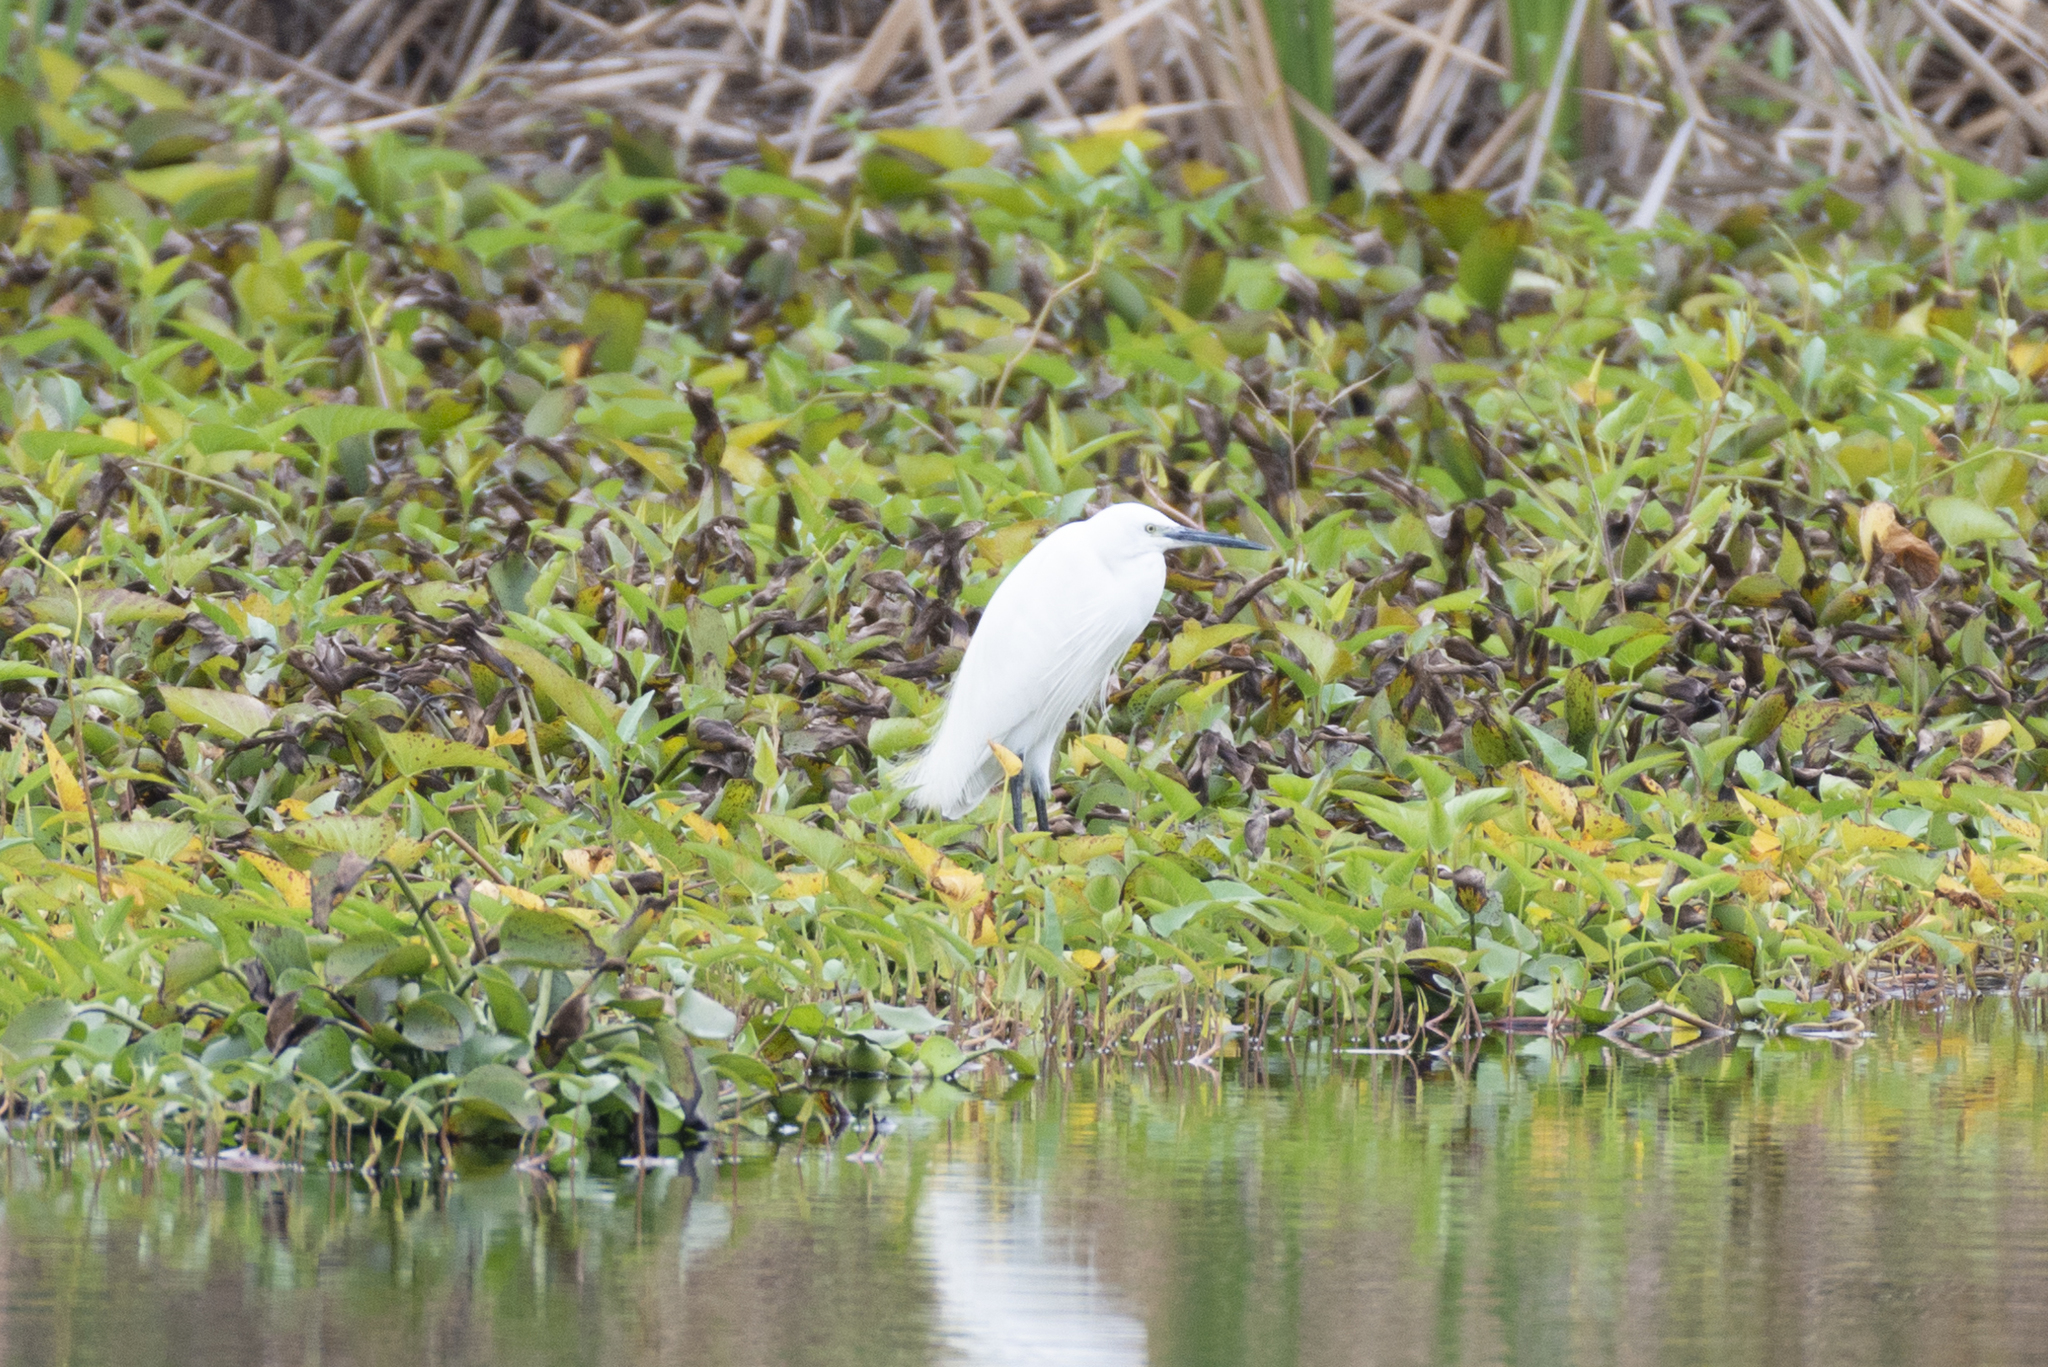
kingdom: Animalia
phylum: Chordata
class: Aves
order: Pelecaniformes
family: Ardeidae
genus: Egretta
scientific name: Egretta garzetta
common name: Little egret
